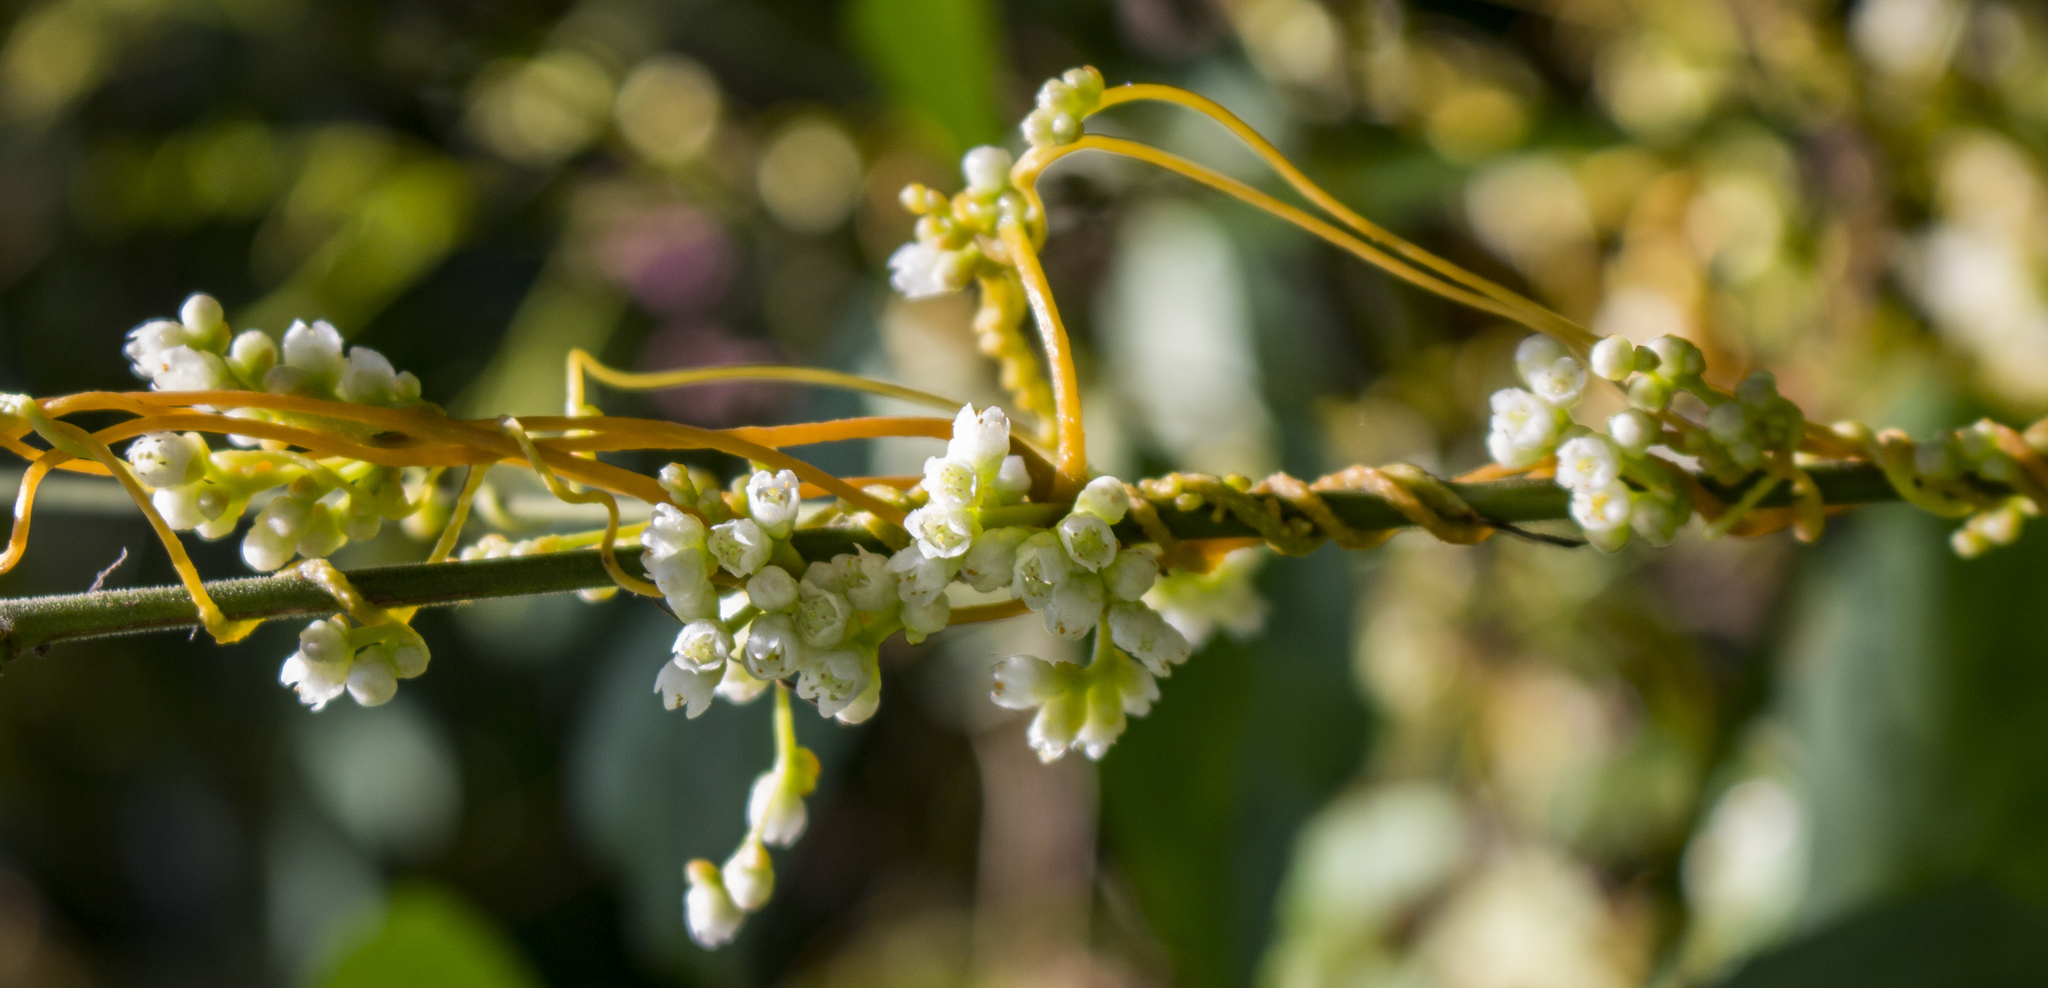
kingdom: Plantae
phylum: Tracheophyta
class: Magnoliopsida
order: Solanales
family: Convolvulaceae
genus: Cuscuta
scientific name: Cuscuta gronovii
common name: Common dodder
